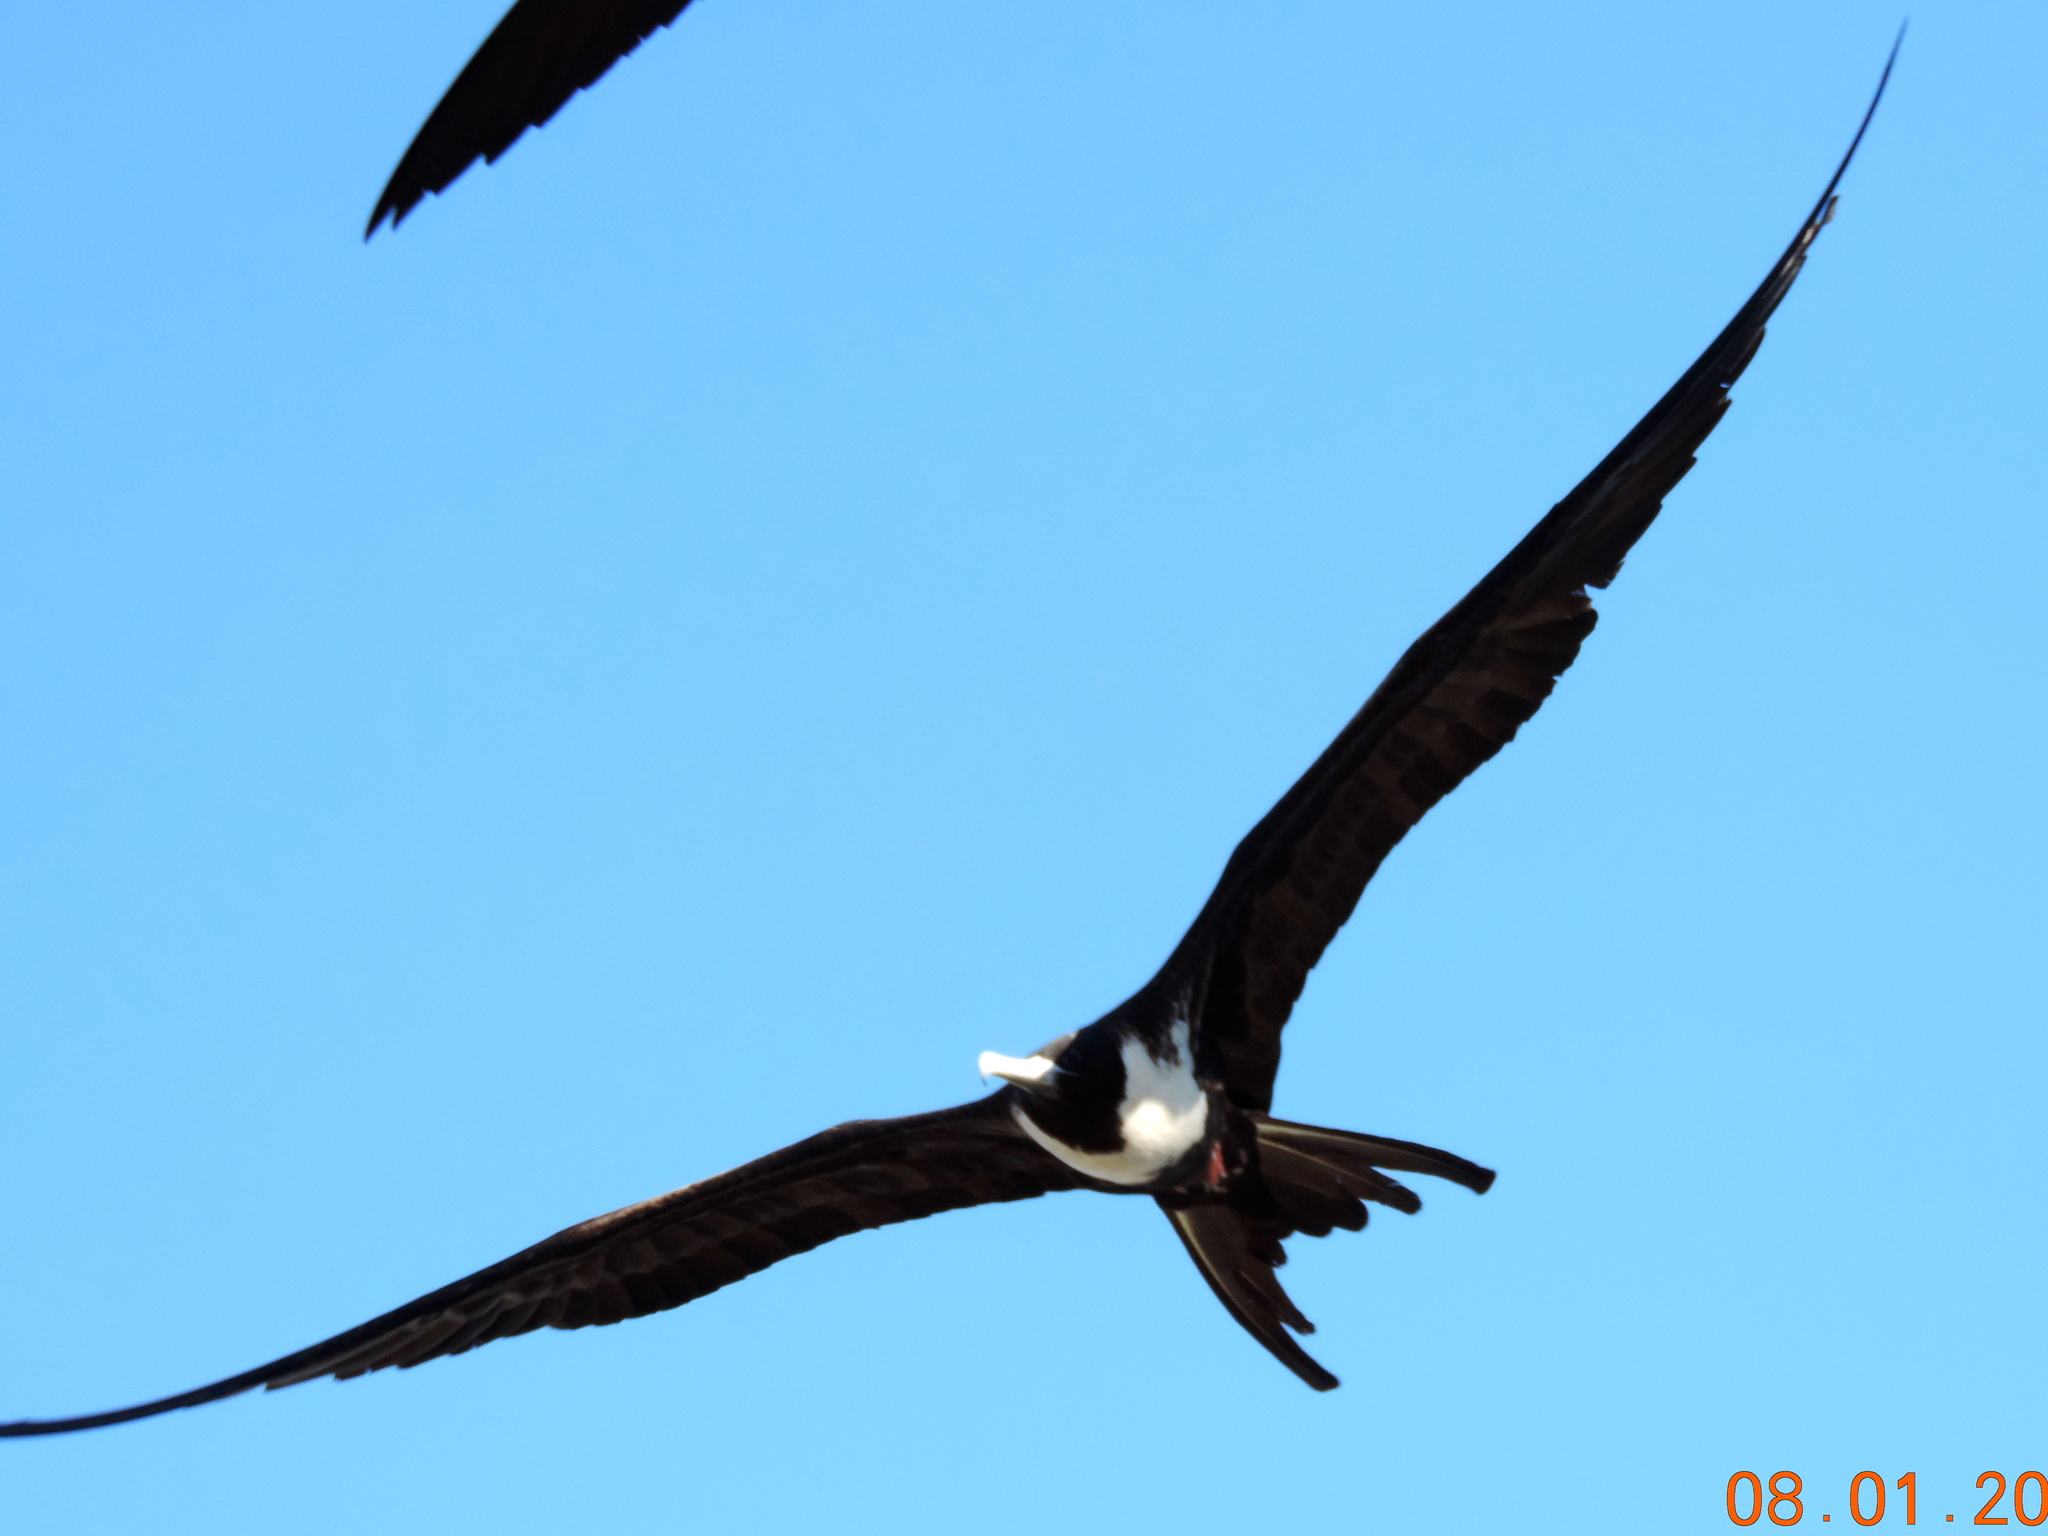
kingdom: Animalia
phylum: Chordata
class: Aves
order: Suliformes
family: Fregatidae
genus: Fregata
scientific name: Fregata magnificens
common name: Magnificent frigatebird
